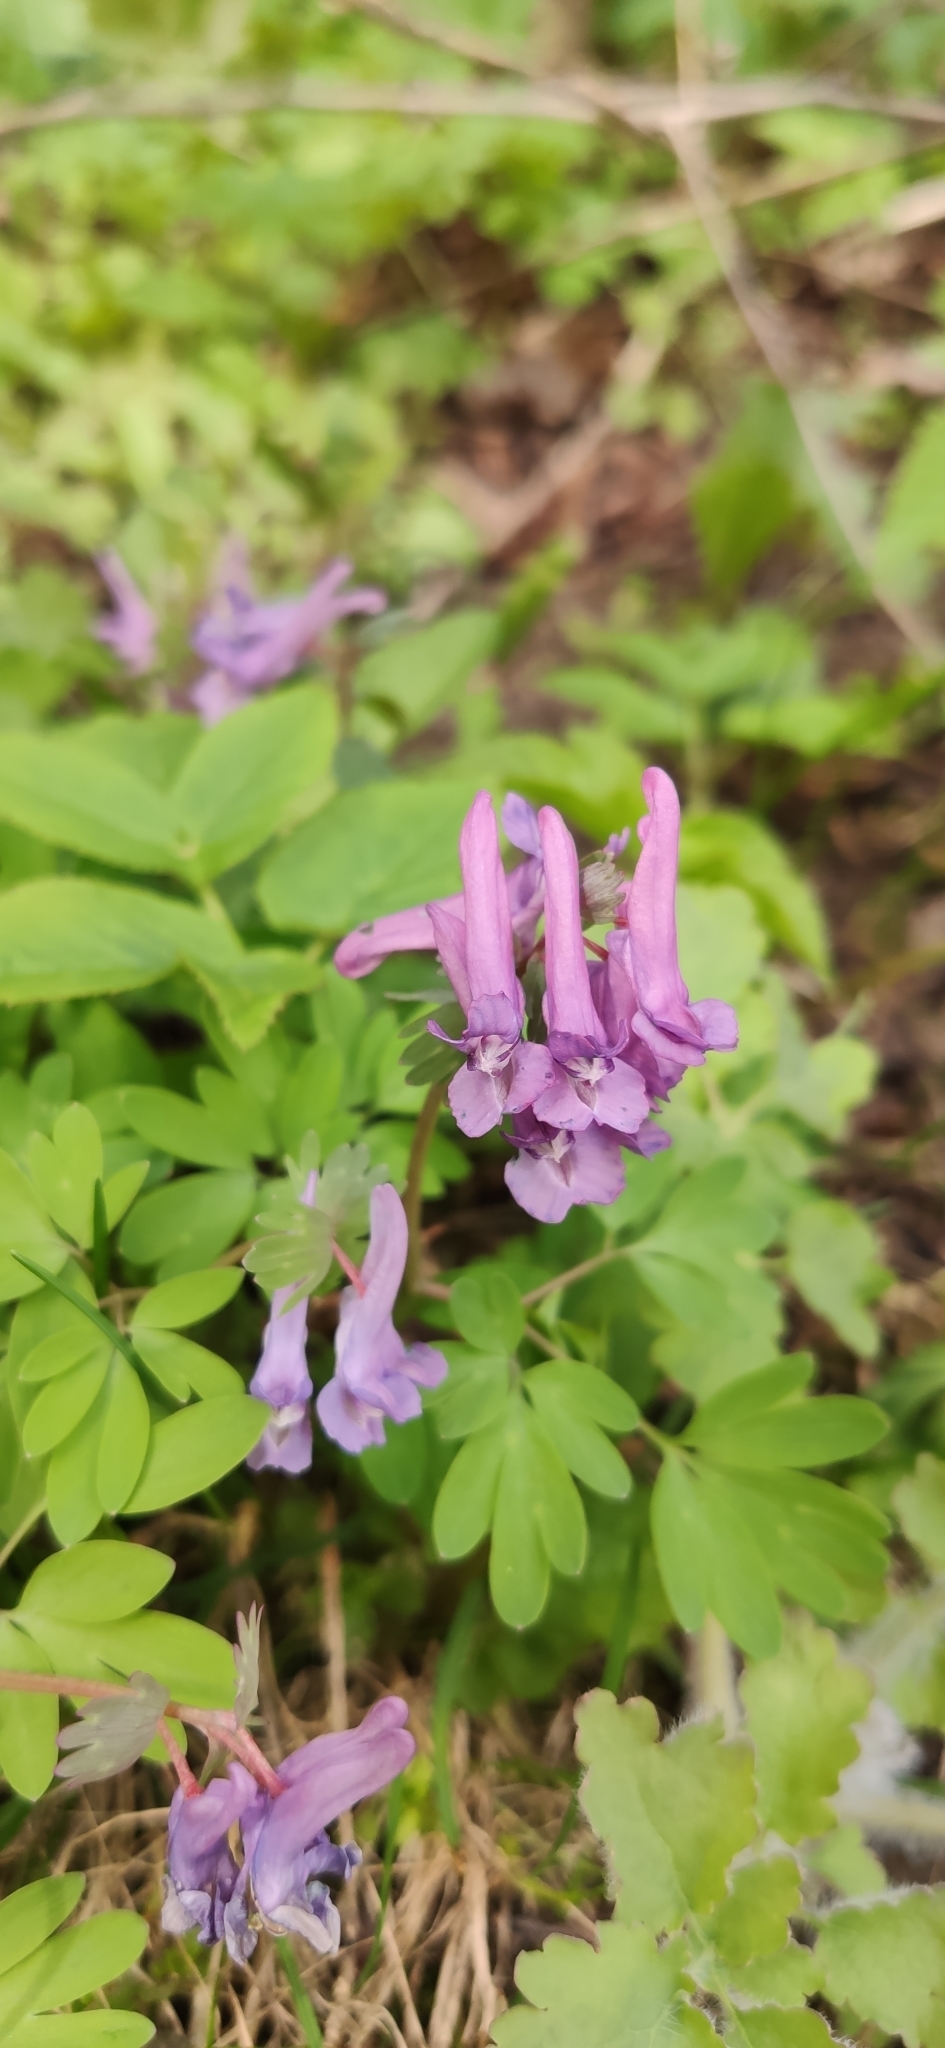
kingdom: Plantae
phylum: Tracheophyta
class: Magnoliopsida
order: Ranunculales
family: Papaveraceae
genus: Corydalis
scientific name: Corydalis solida
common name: Bird-in-a-bush
